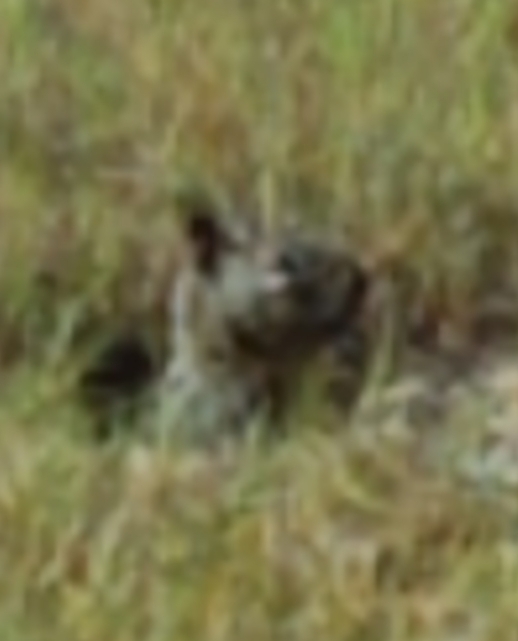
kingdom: Animalia
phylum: Chordata
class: Mammalia
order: Rodentia
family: Sciuridae
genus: Otospermophilus
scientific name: Otospermophilus beecheyi
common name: California ground squirrel
